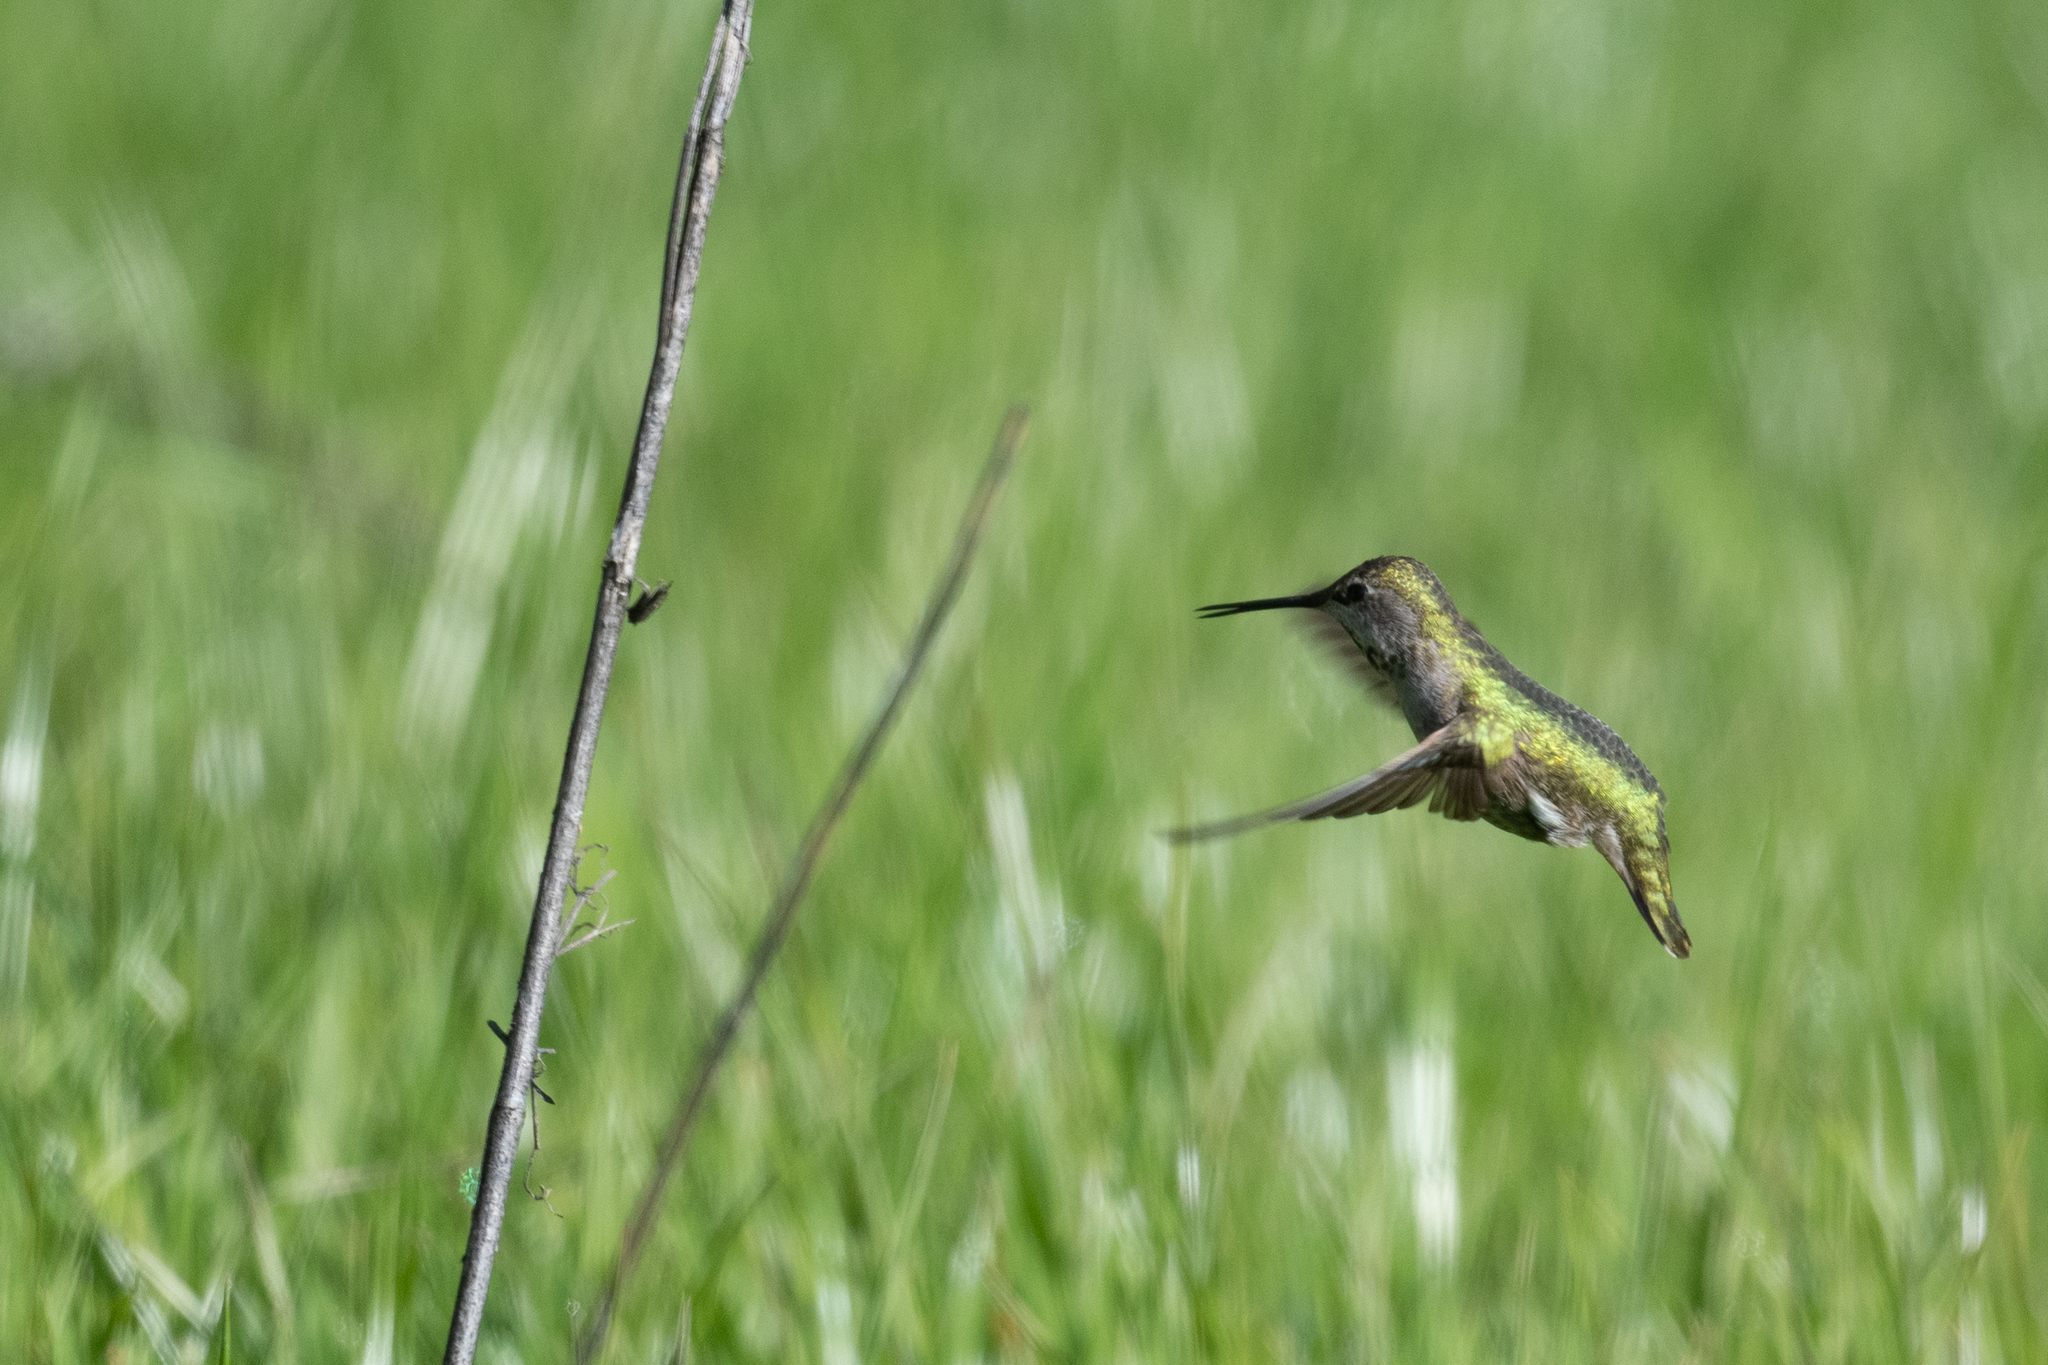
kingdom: Animalia
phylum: Chordata
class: Aves
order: Apodiformes
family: Trochilidae
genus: Calypte
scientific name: Calypte anna
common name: Anna's hummingbird
